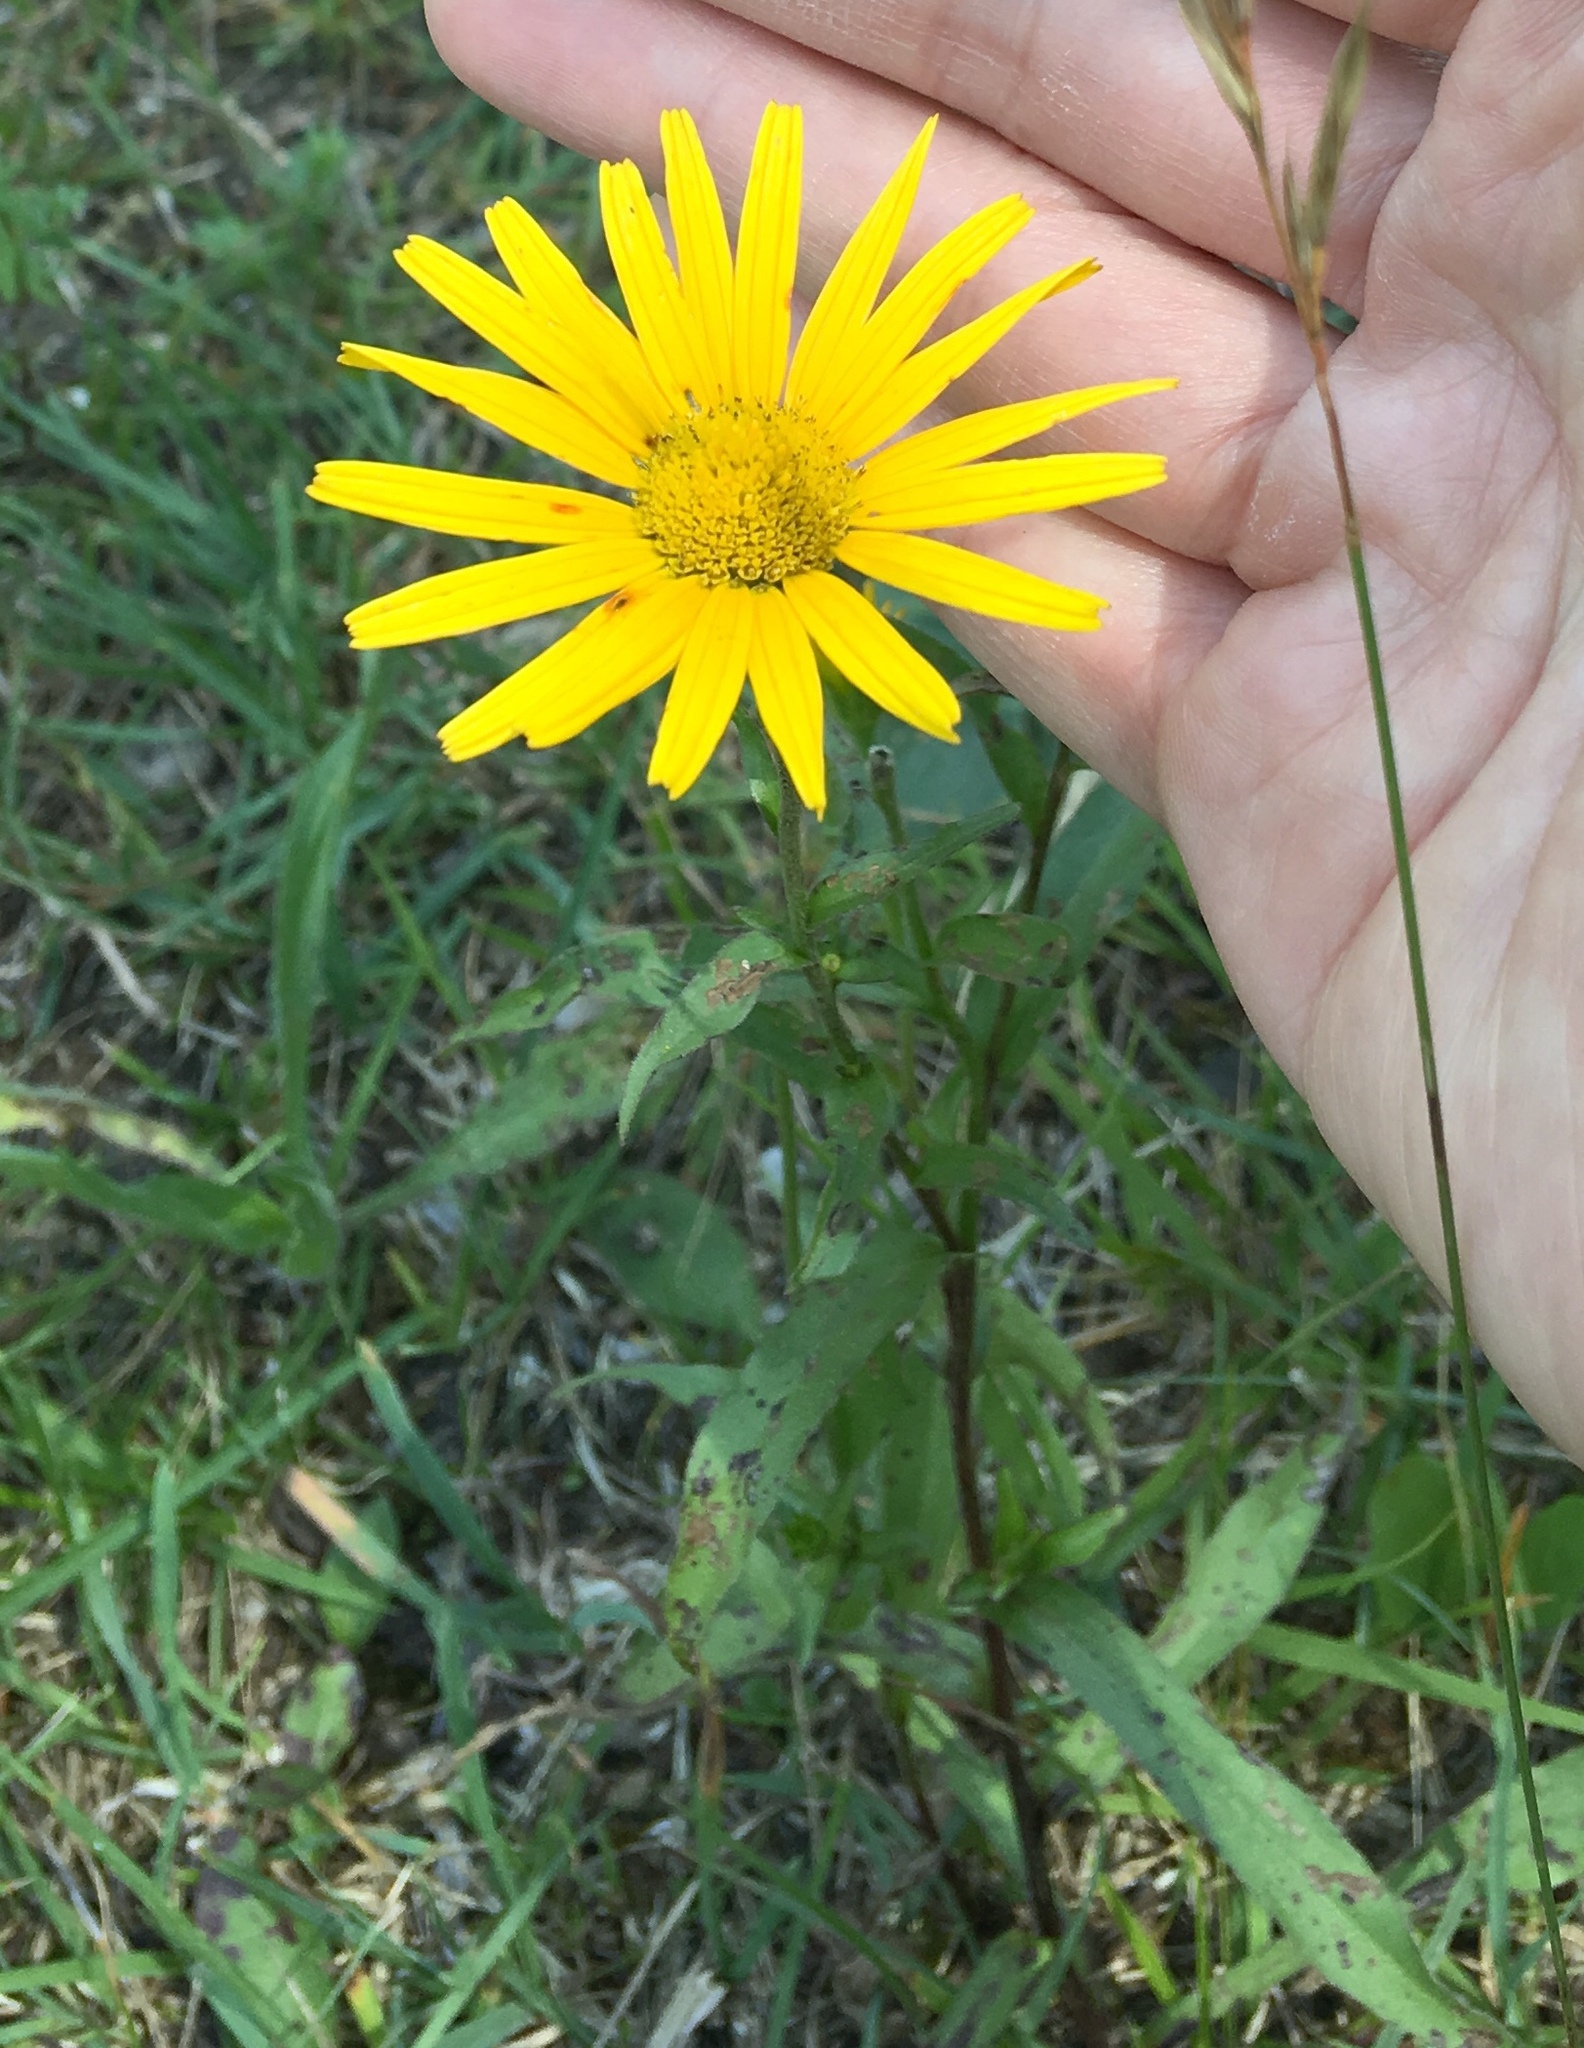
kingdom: Plantae
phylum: Tracheophyta
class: Magnoliopsida
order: Asterales
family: Asteraceae
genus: Buphthalmum
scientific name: Buphthalmum salicifolium
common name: Willow-leaved yellow-oxeye
